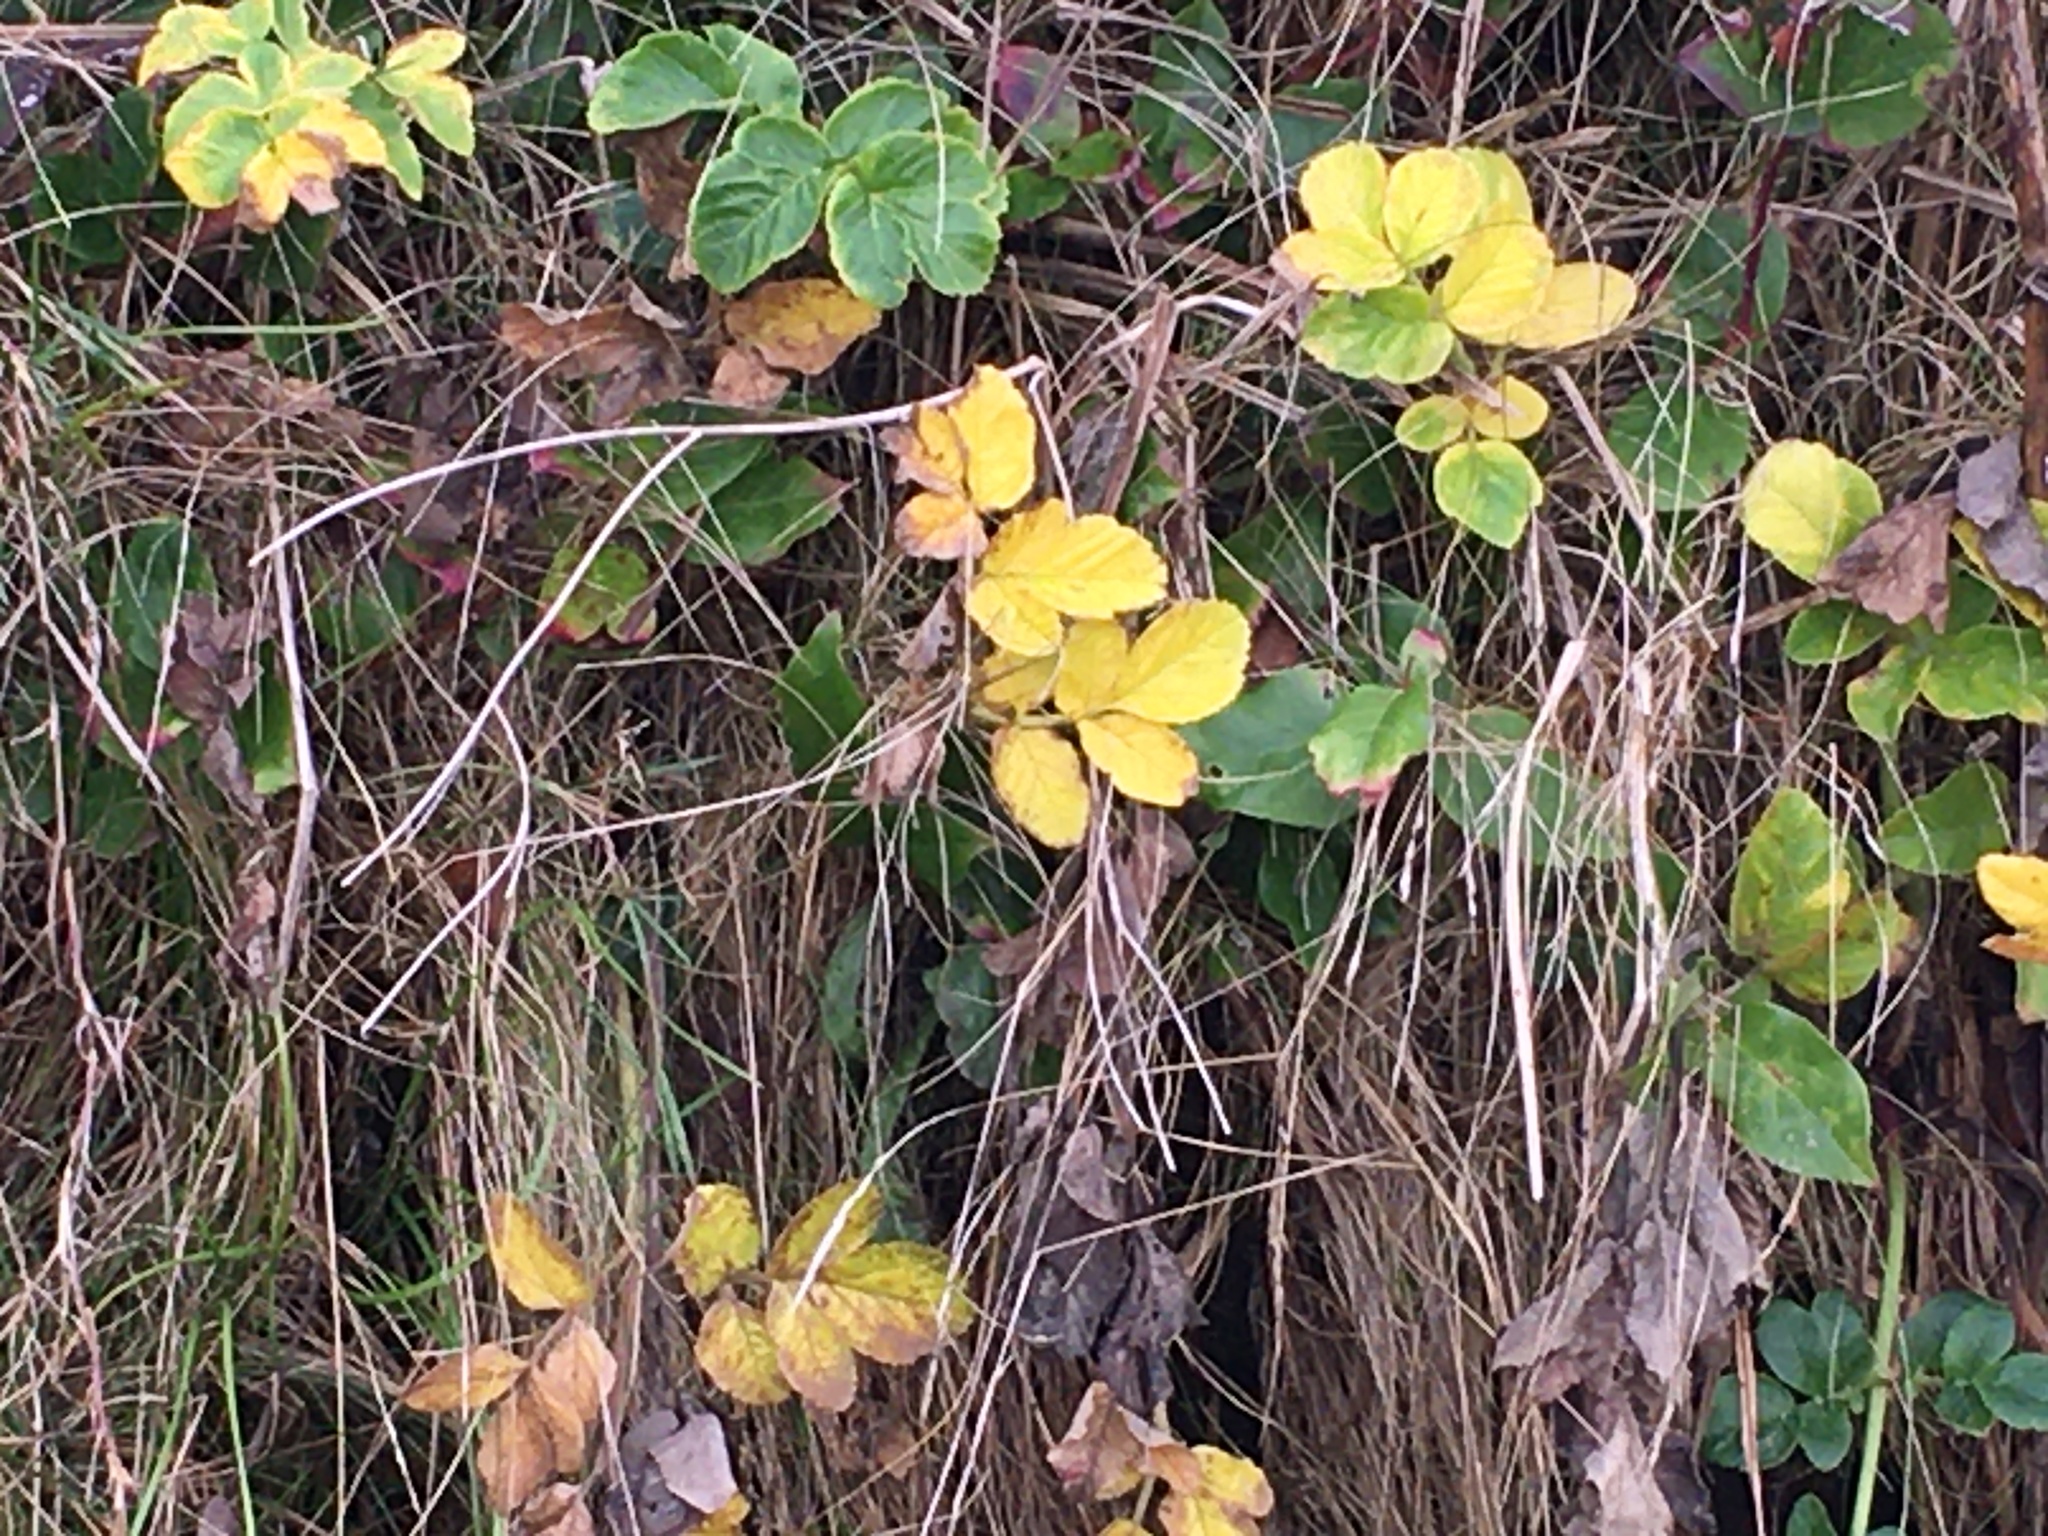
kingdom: Plantae
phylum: Tracheophyta
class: Magnoliopsida
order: Apiales
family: Apiaceae
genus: Angelica
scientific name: Angelica hendersonii
